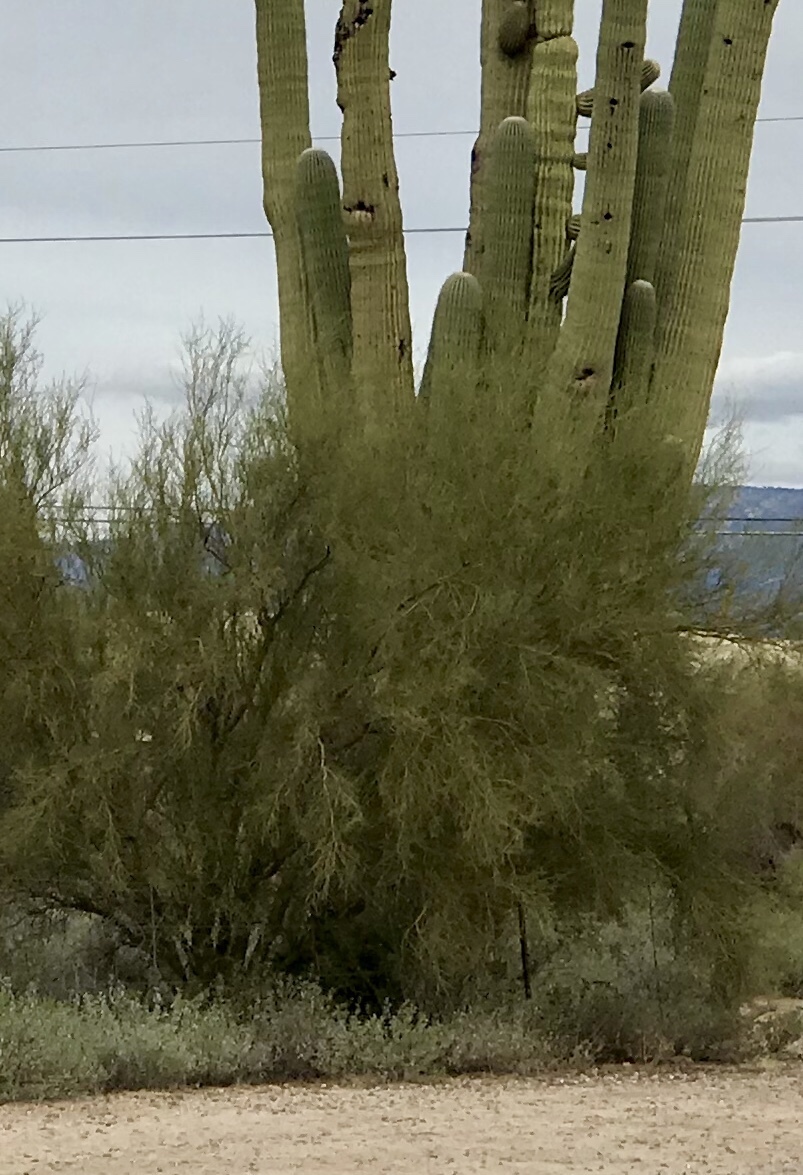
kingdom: Plantae
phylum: Tracheophyta
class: Magnoliopsida
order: Fabales
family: Fabaceae
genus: Parkinsonia
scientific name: Parkinsonia microphylla
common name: Yellow paloverde
